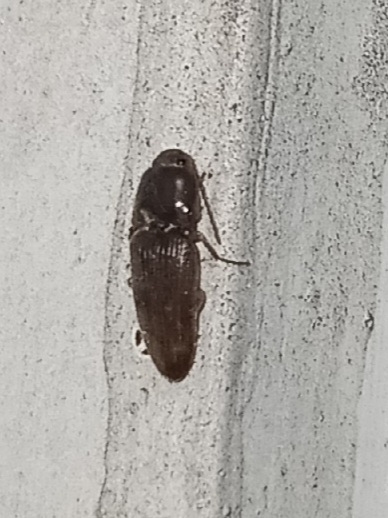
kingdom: Animalia
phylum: Arthropoda
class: Insecta
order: Coleoptera
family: Elateridae
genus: Monocrepidius
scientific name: Monocrepidius
